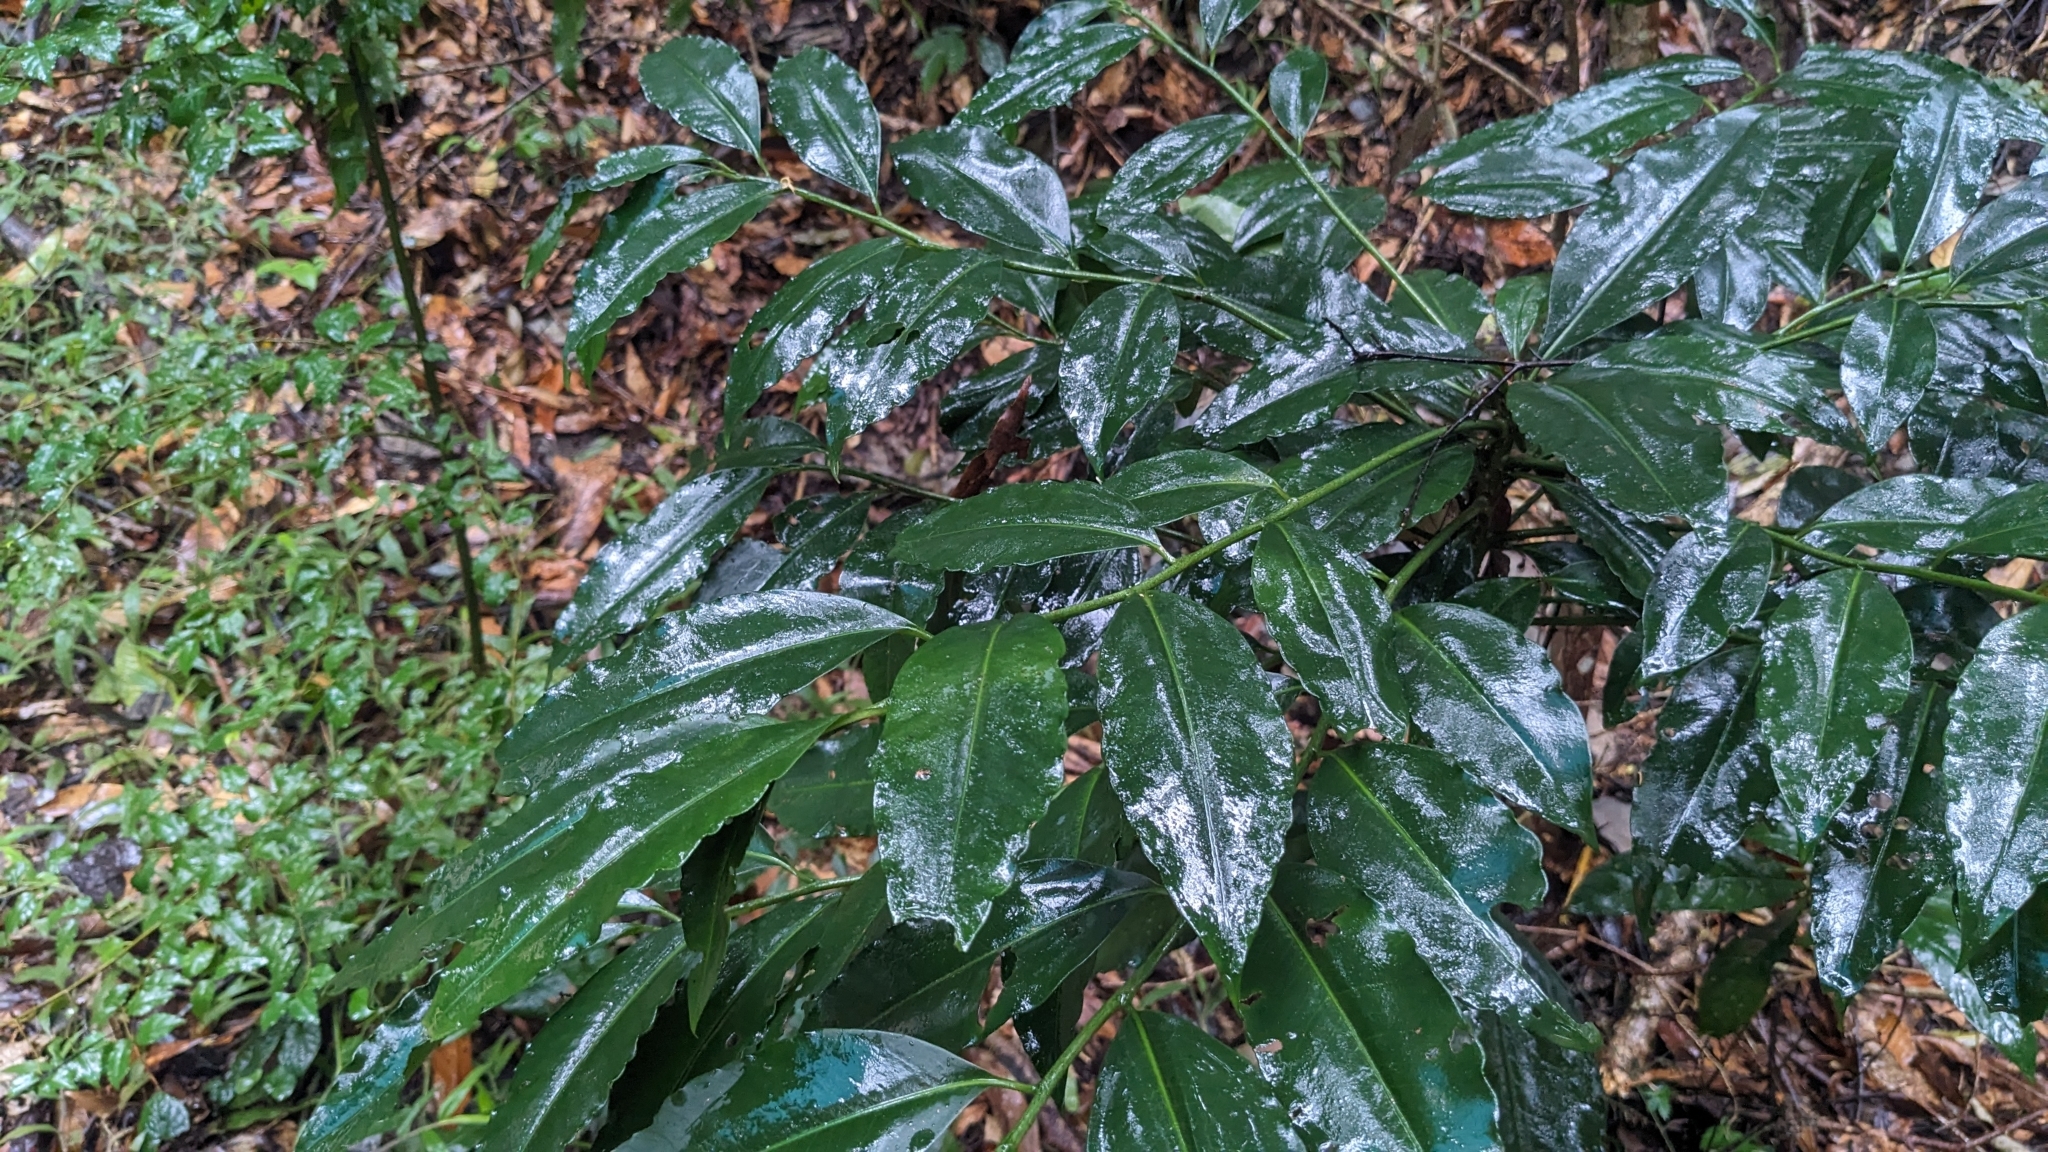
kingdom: Plantae
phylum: Tracheophyta
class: Magnoliopsida
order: Ericales
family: Primulaceae
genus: Ardisia
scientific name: Ardisia polysticta
